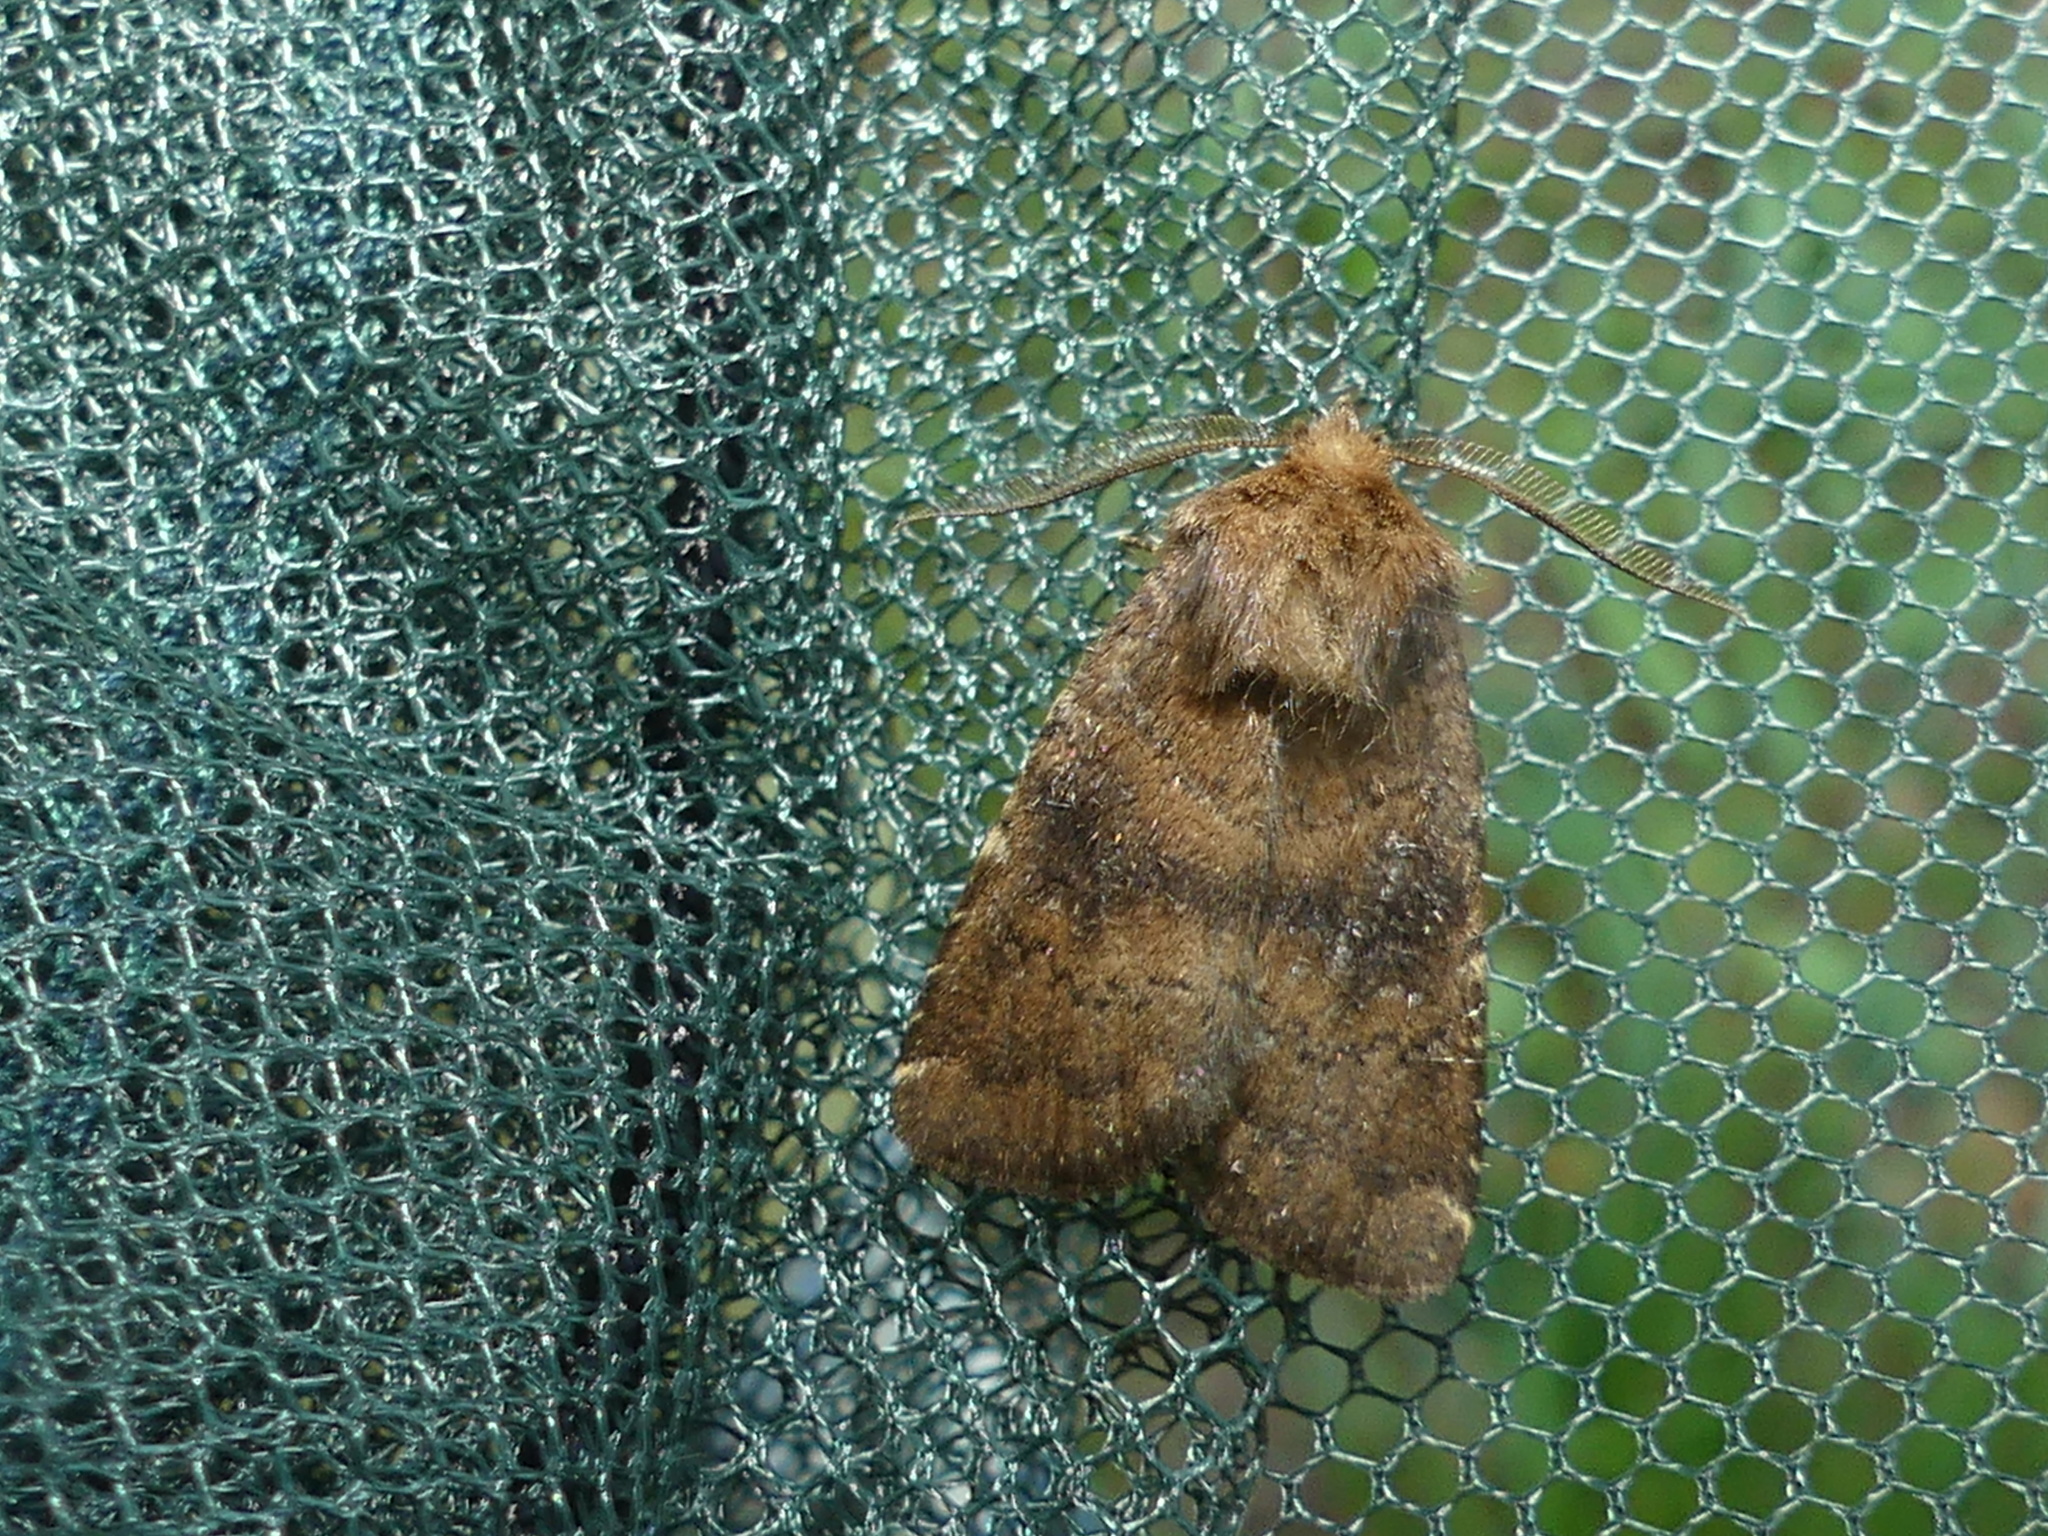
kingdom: Animalia
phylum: Arthropoda
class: Insecta
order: Lepidoptera
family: Noctuidae
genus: Charanyca
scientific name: Charanyca ferruginea
